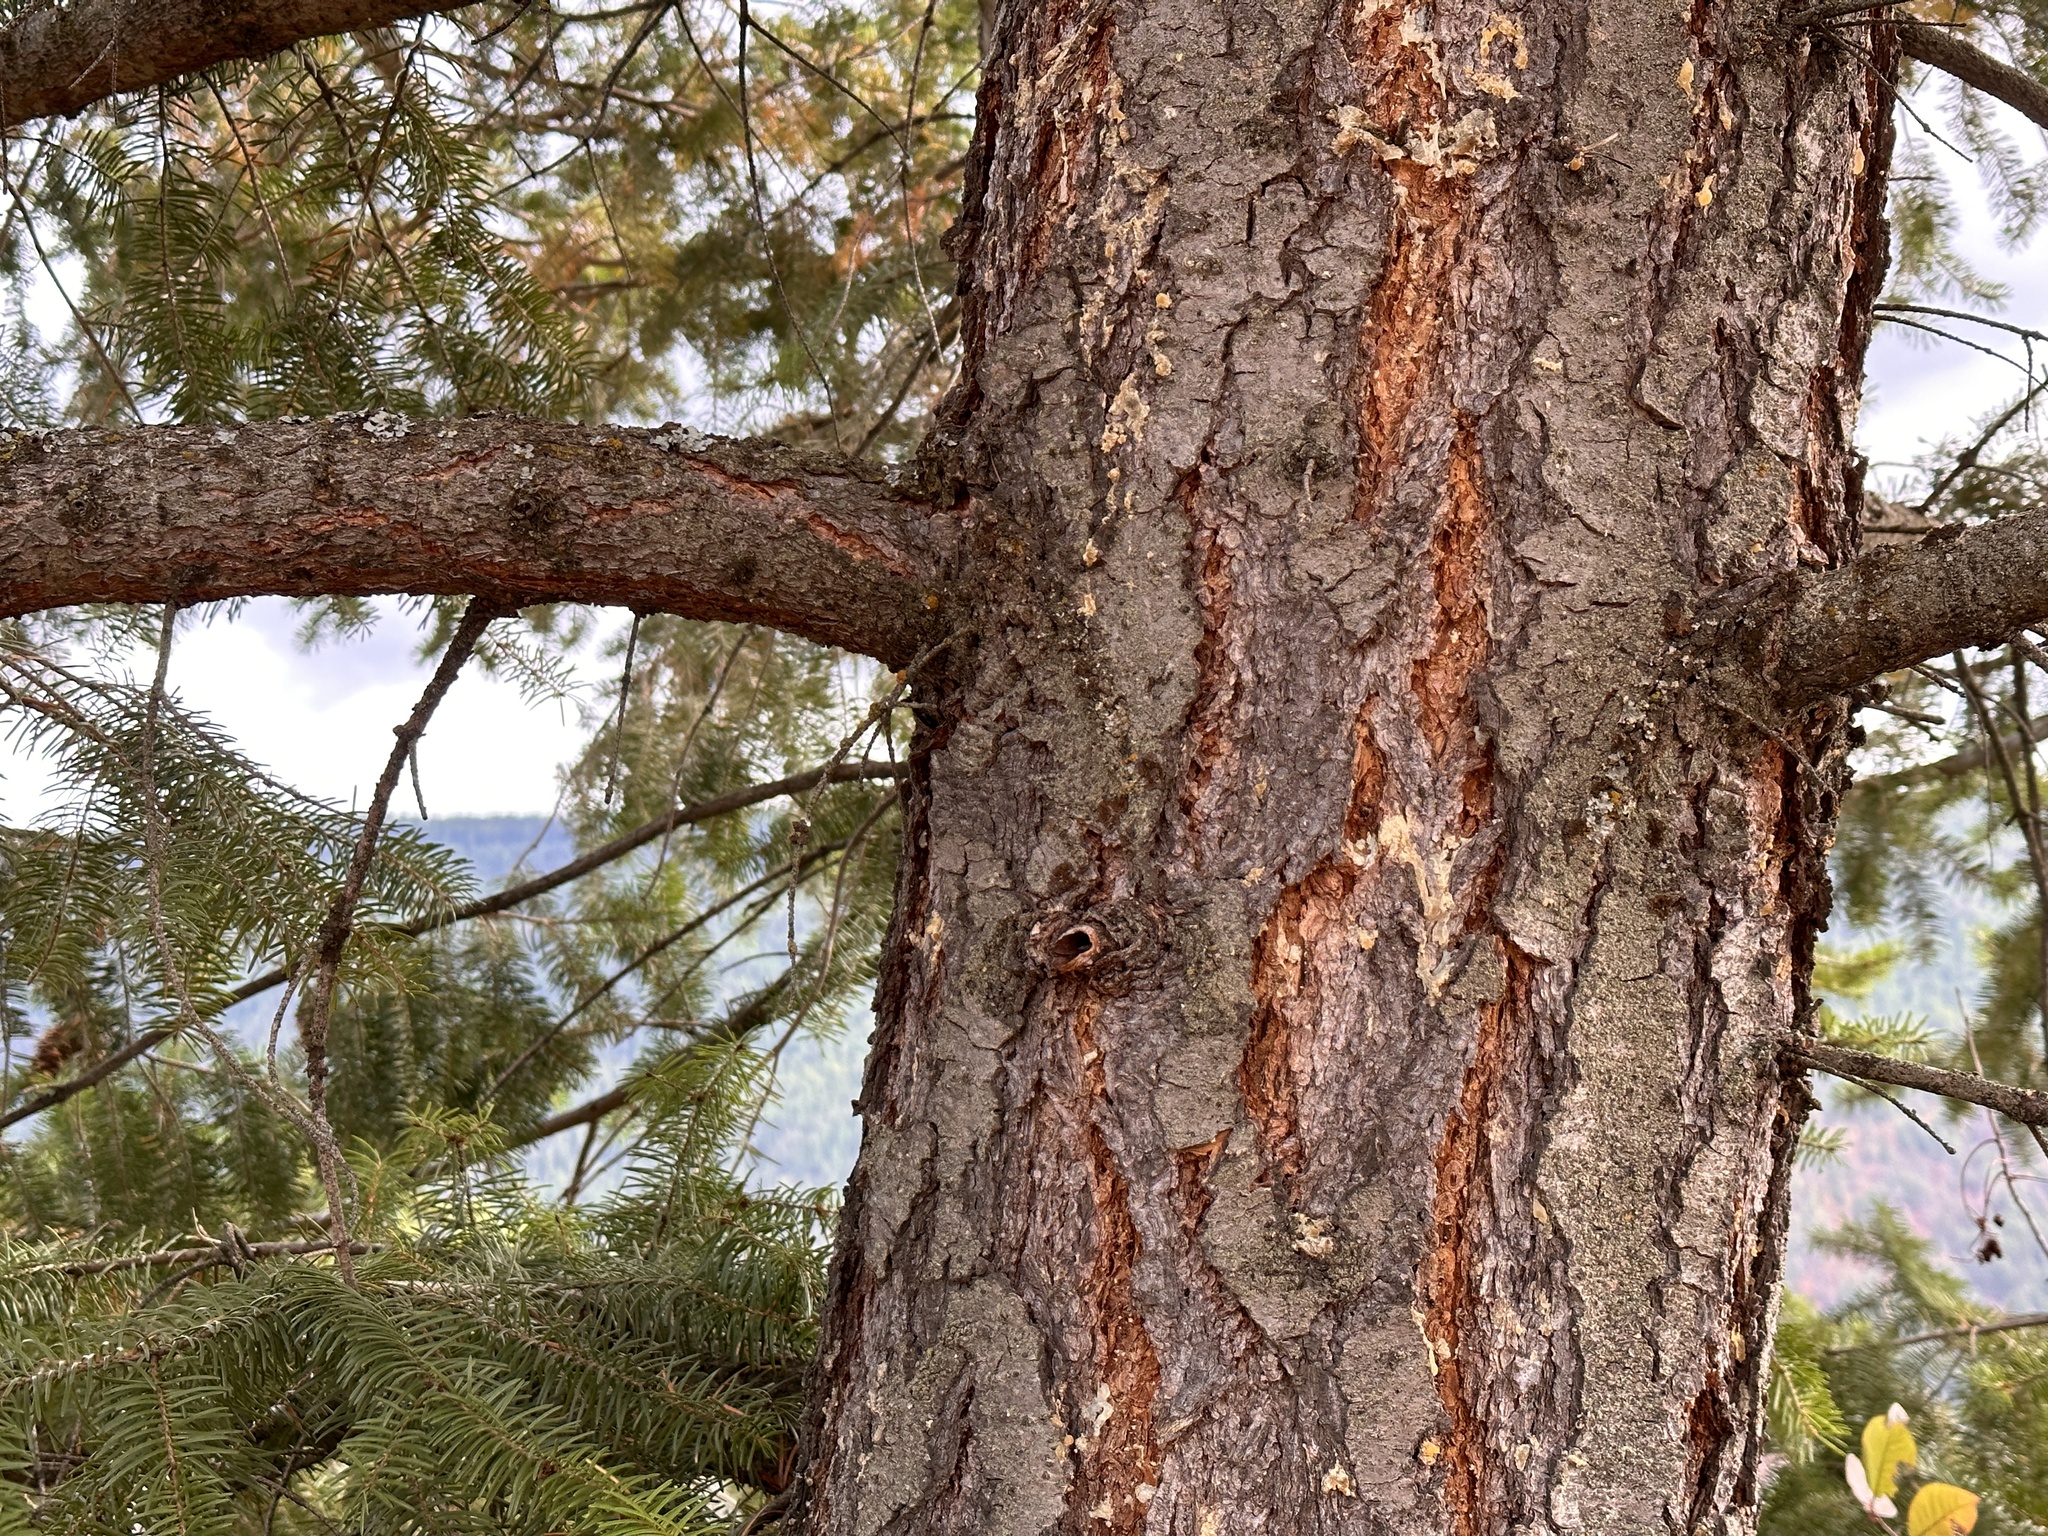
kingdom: Plantae
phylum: Tracheophyta
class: Pinopsida
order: Pinales
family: Pinaceae
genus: Pseudotsuga
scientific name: Pseudotsuga menziesii
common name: Douglas fir
